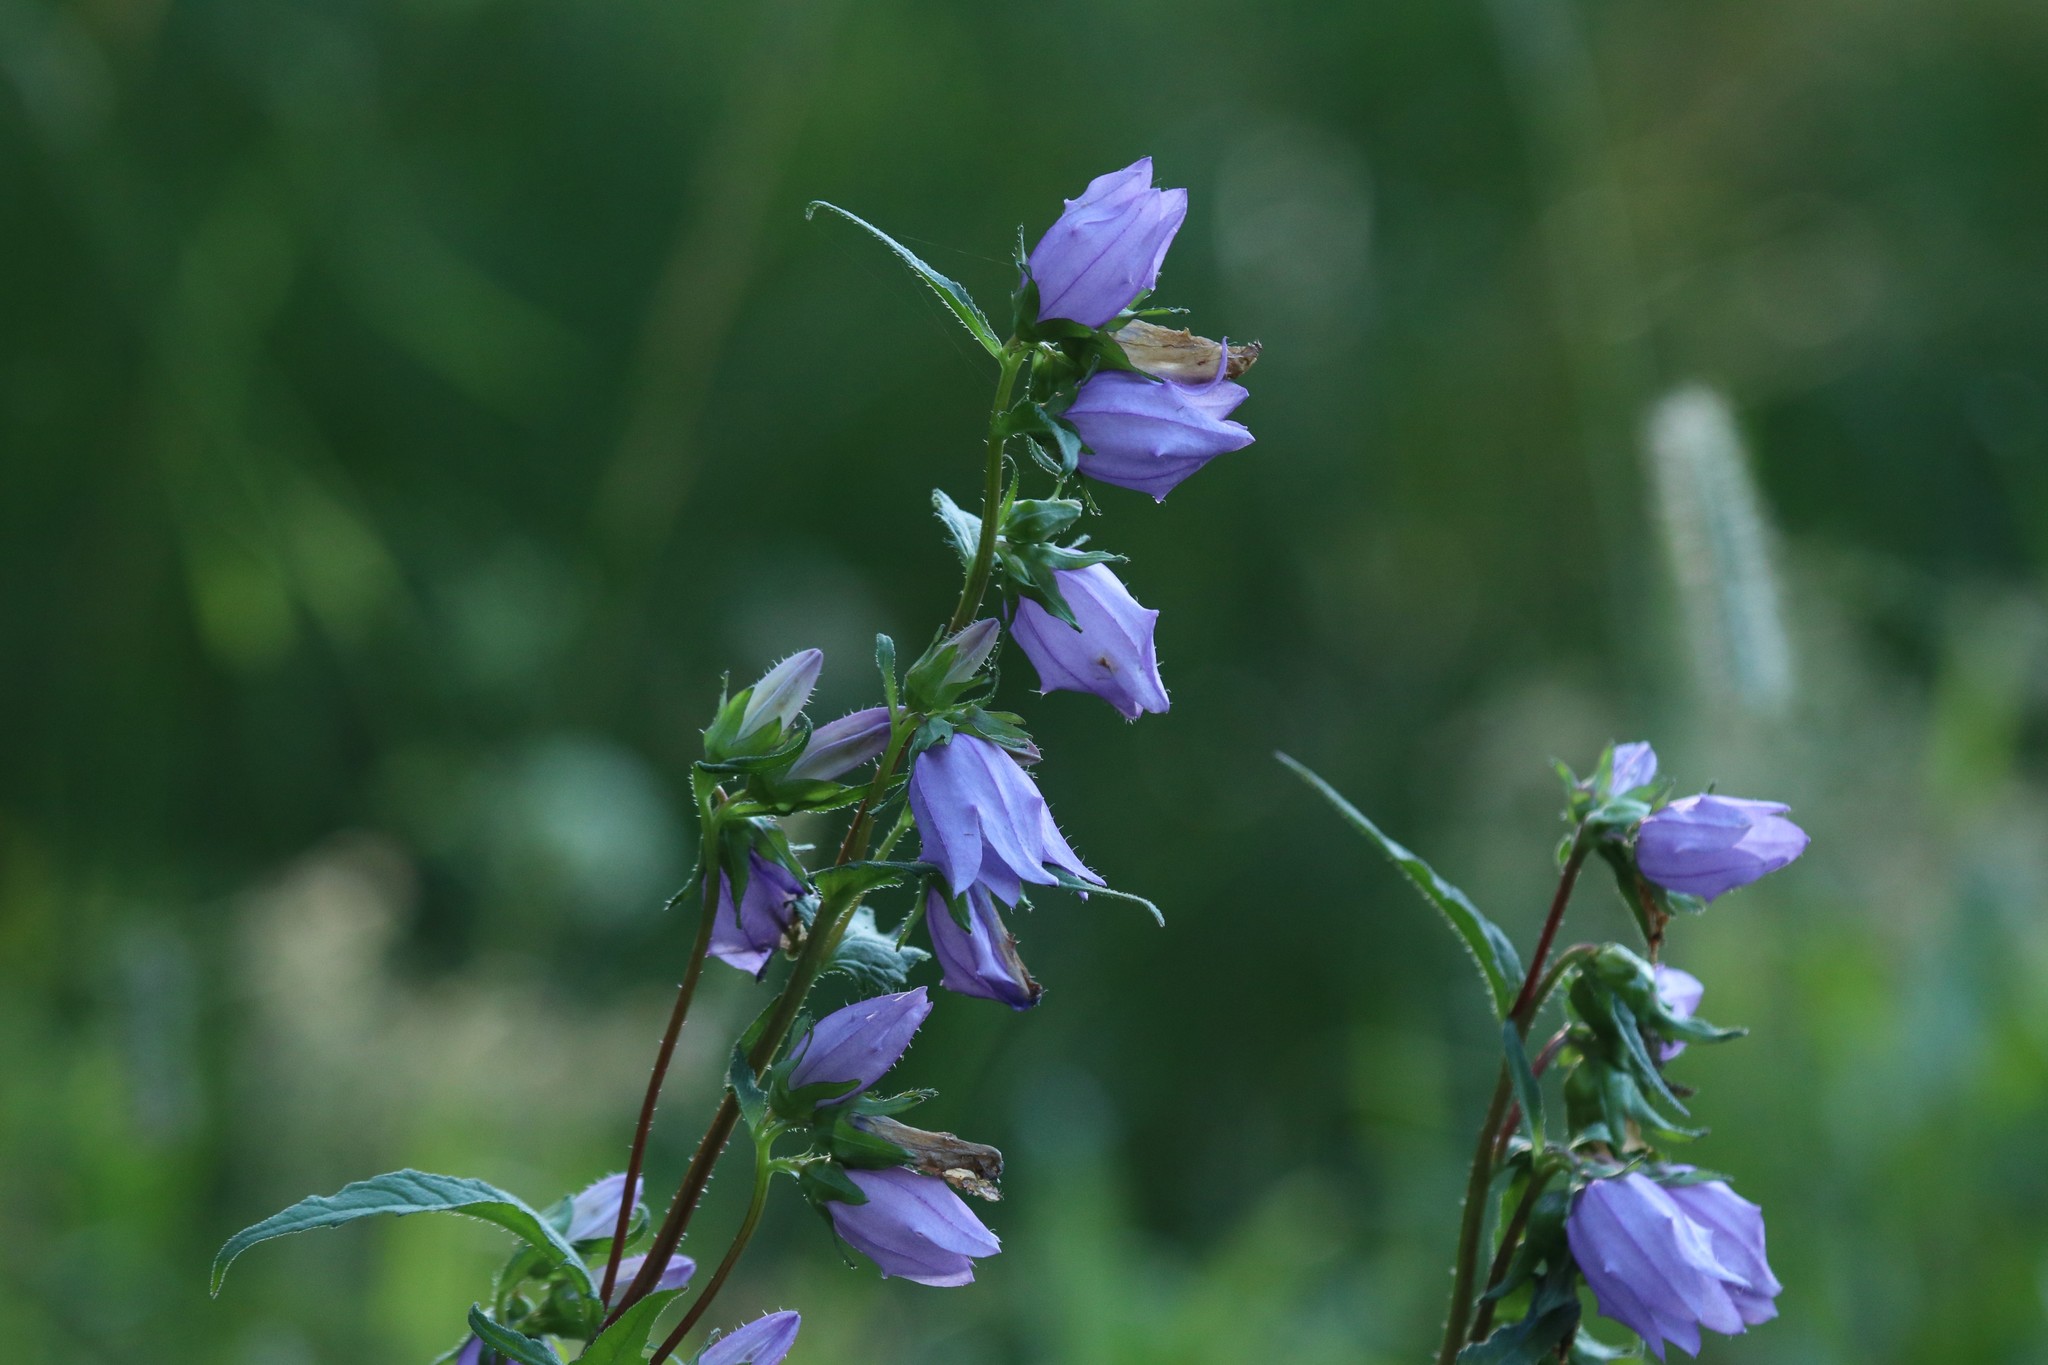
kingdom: Plantae
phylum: Tracheophyta
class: Magnoliopsida
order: Asterales
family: Campanulaceae
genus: Campanula
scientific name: Campanula trachelium
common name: Nettle-leaved bellflower
